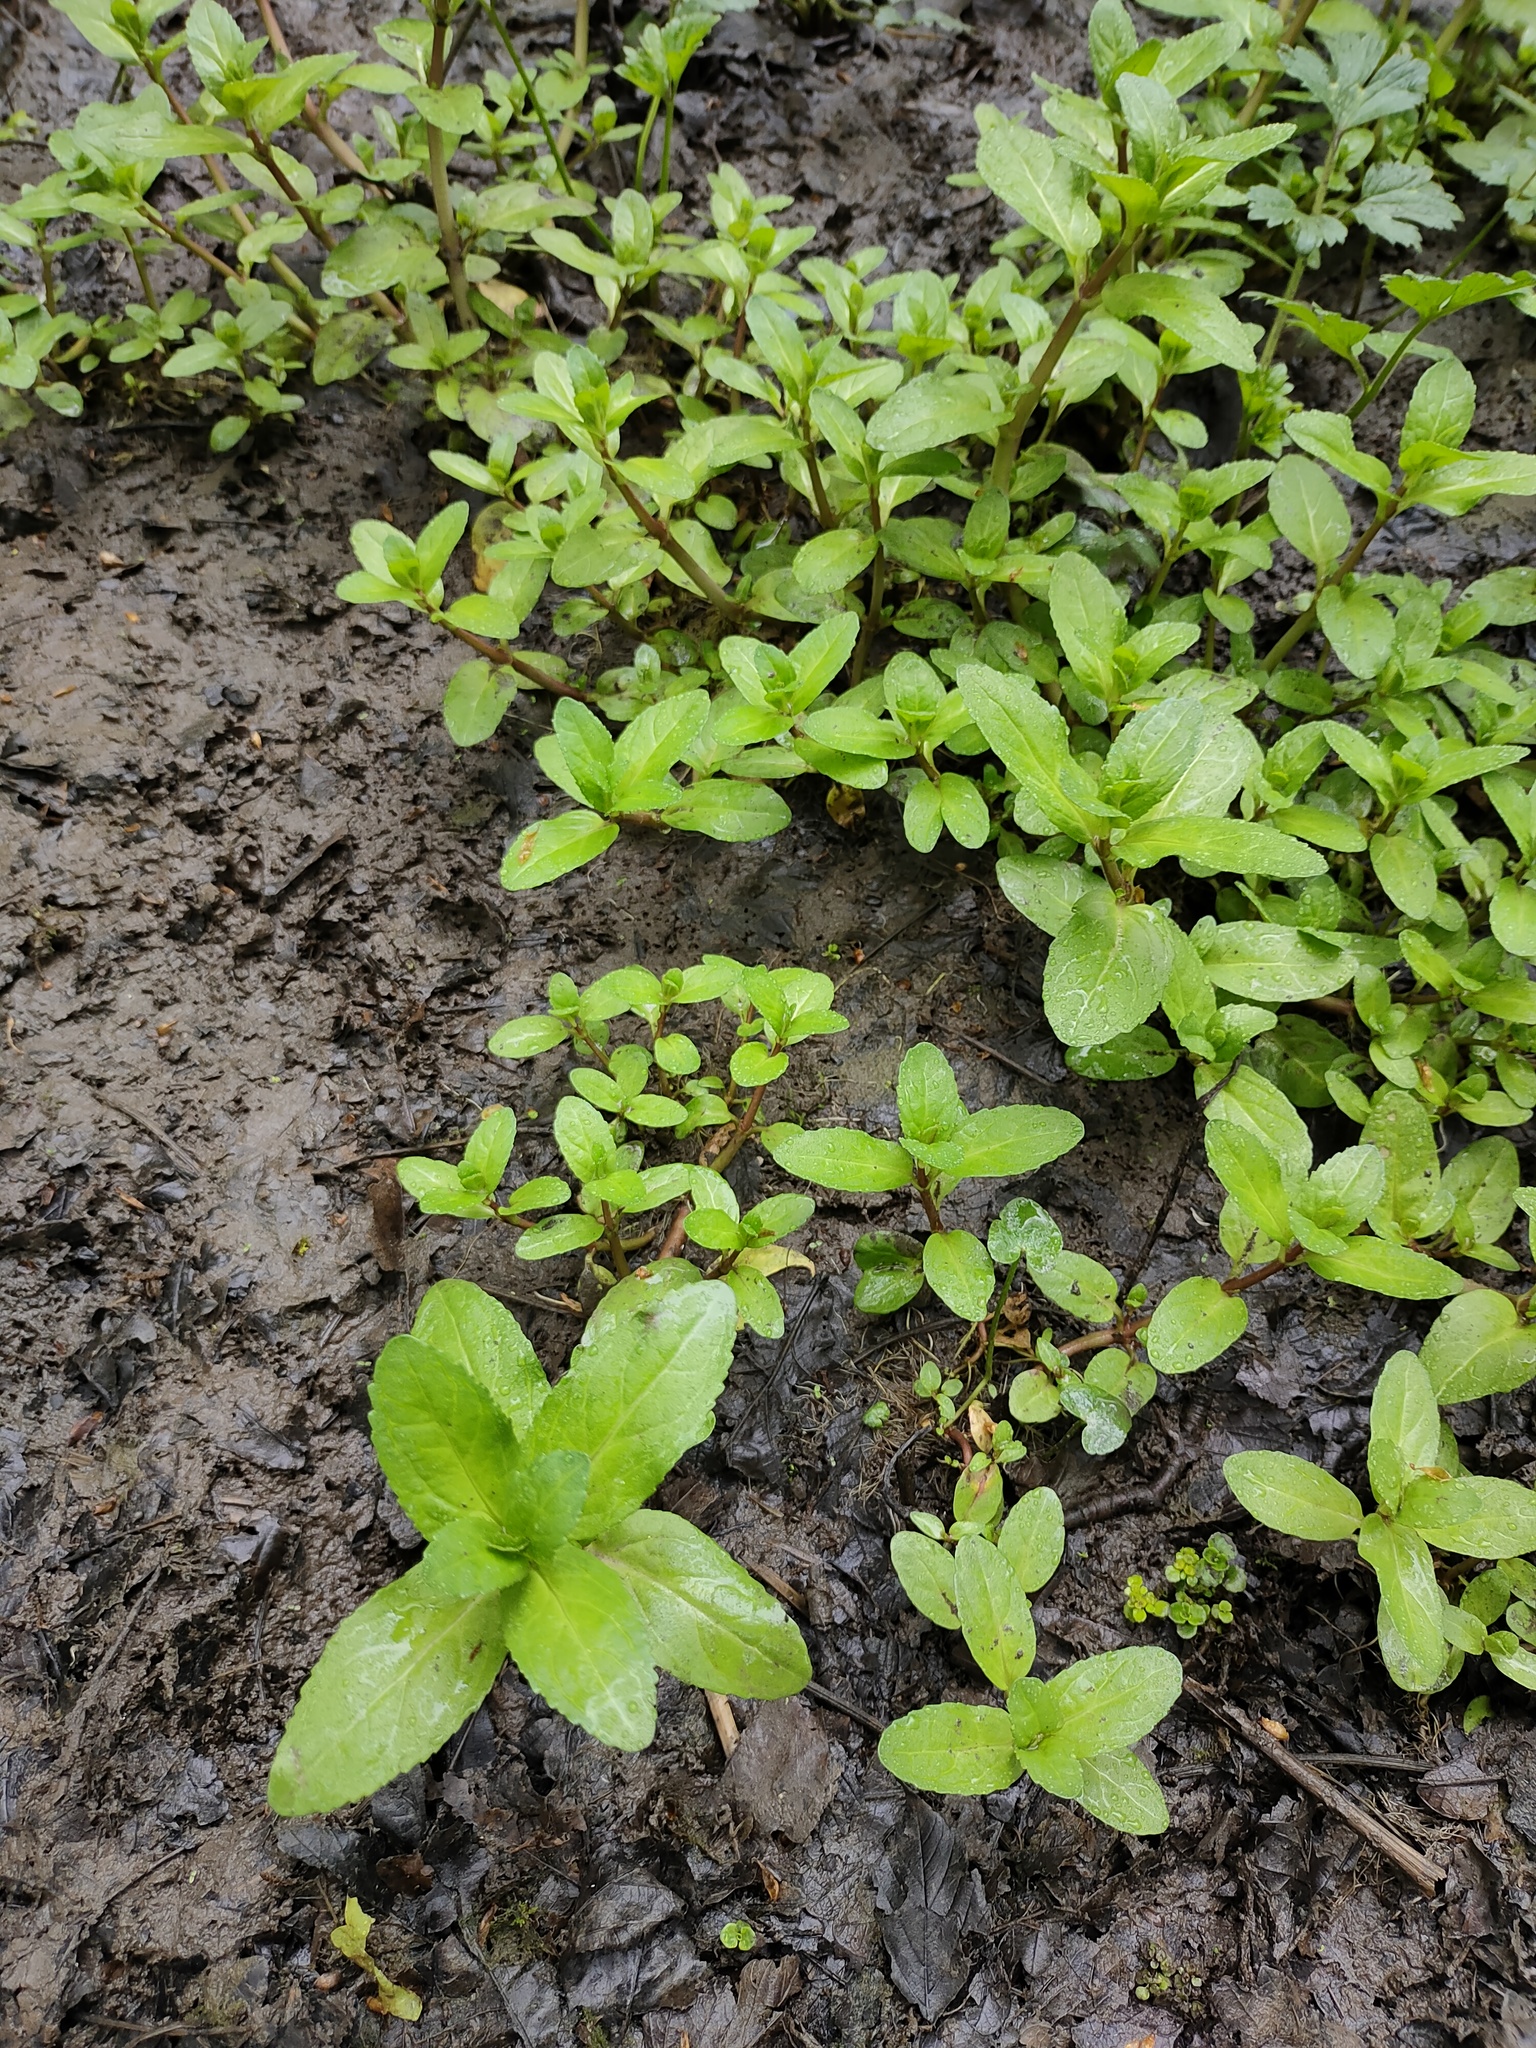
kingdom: Plantae
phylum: Tracheophyta
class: Magnoliopsida
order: Lamiales
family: Plantaginaceae
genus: Veronica
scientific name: Veronica beccabunga
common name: Brooklime
